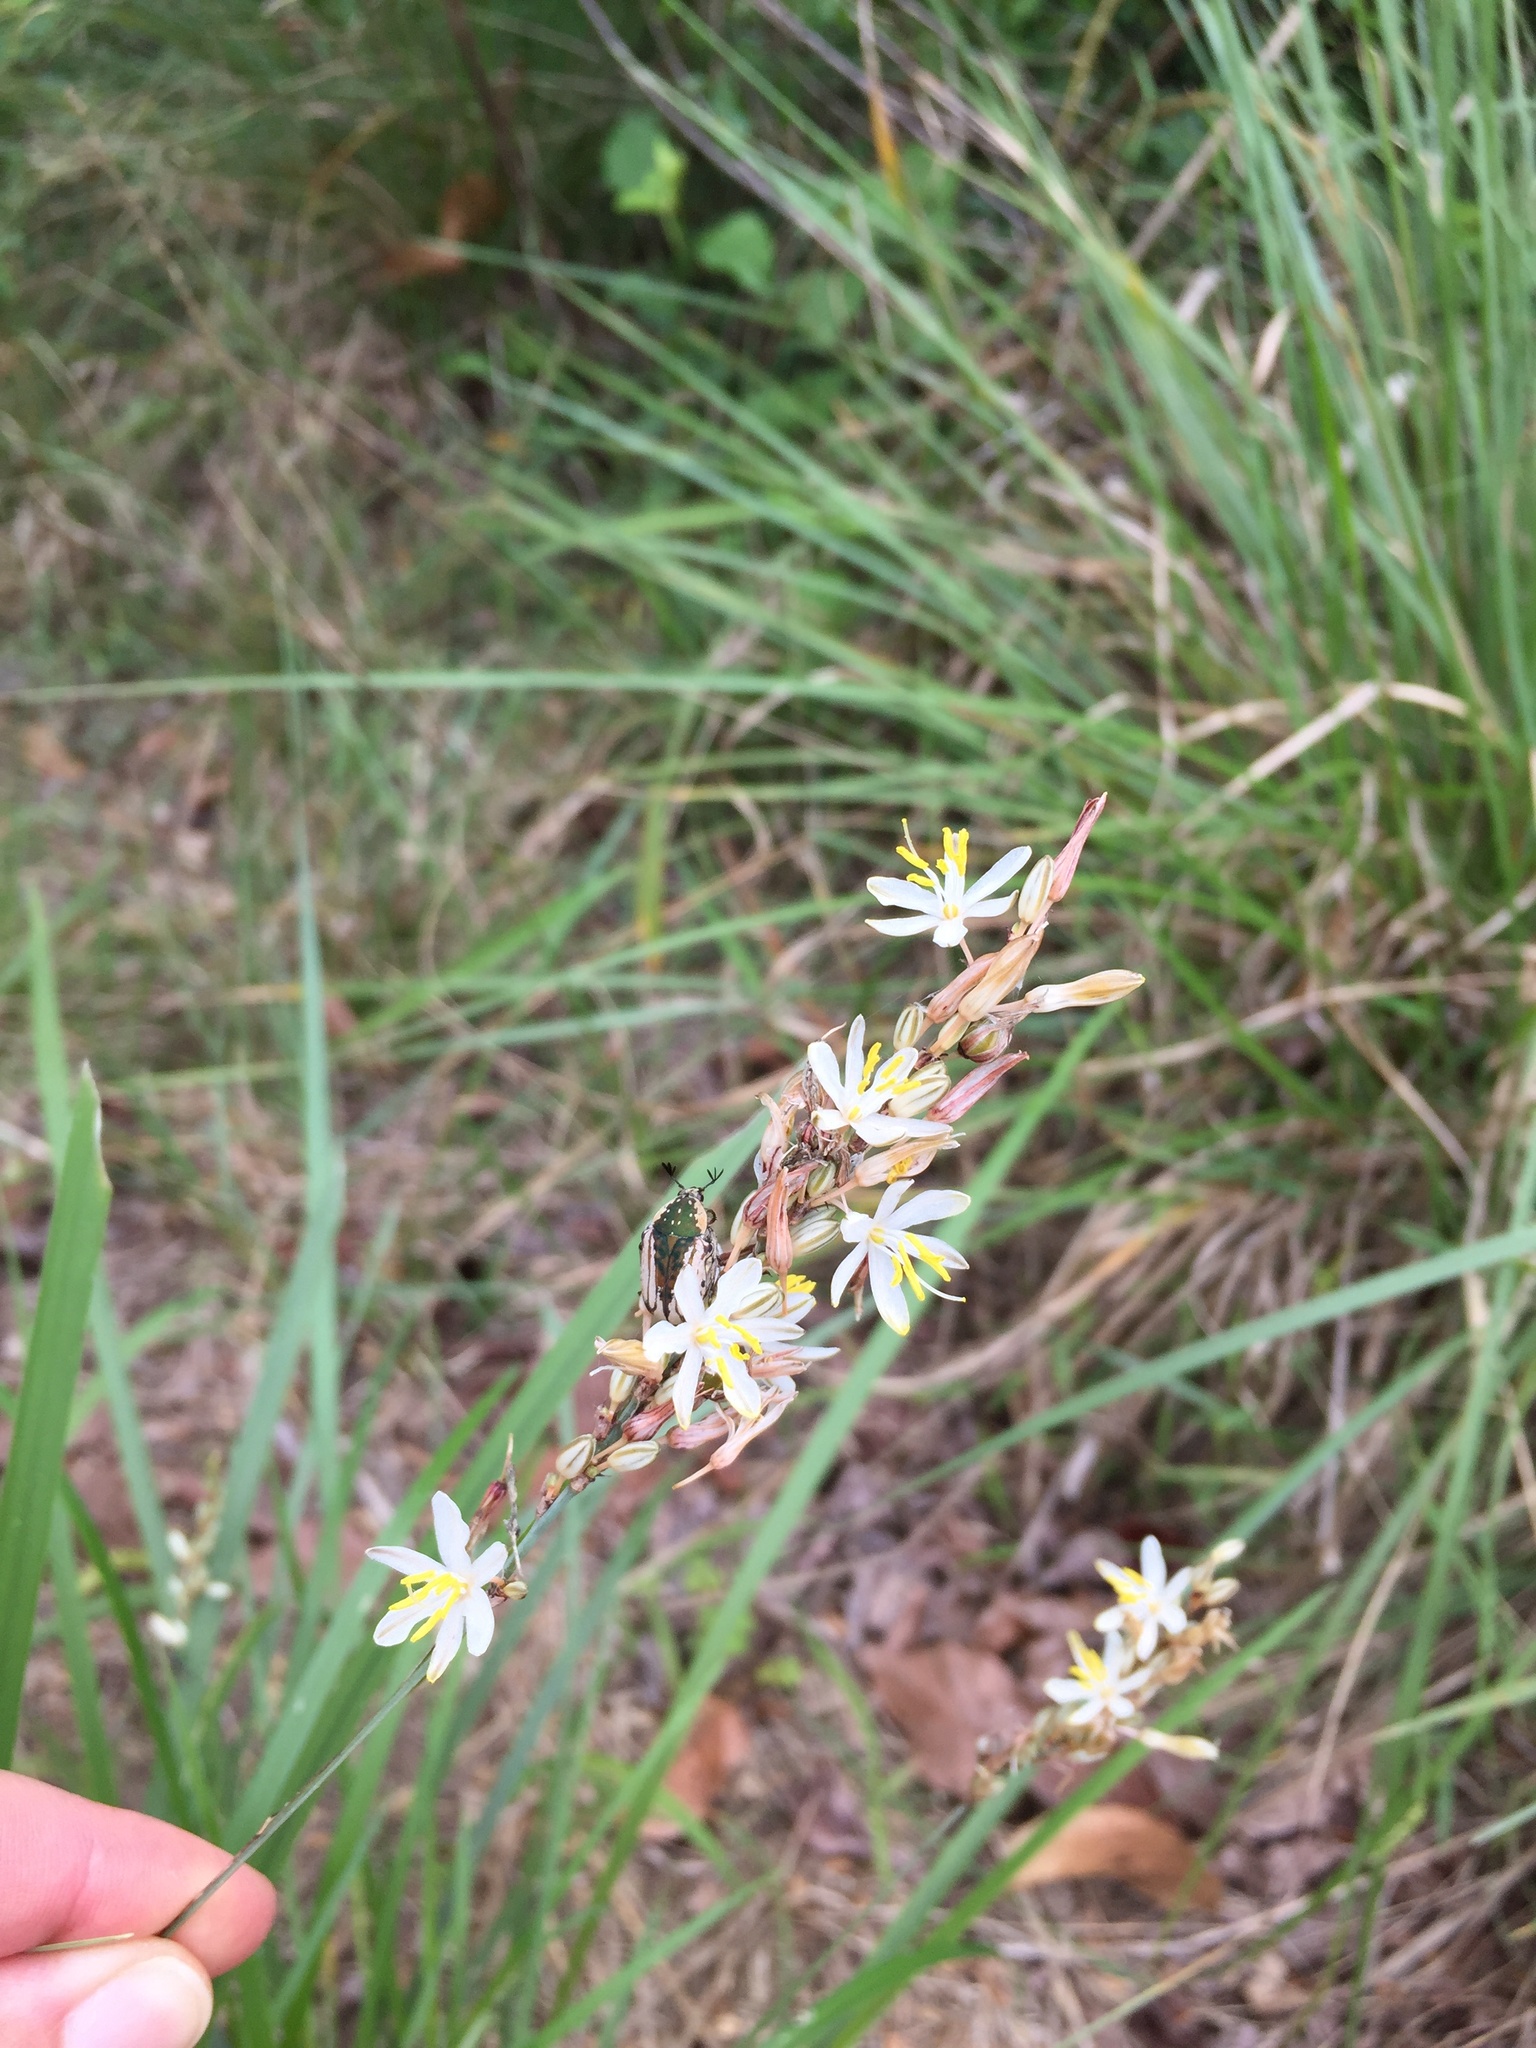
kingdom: Plantae
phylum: Tracheophyta
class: Liliopsida
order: Asparagales
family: Asparagaceae
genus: Chlorophytum
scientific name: Chlorophytum saundersiae
